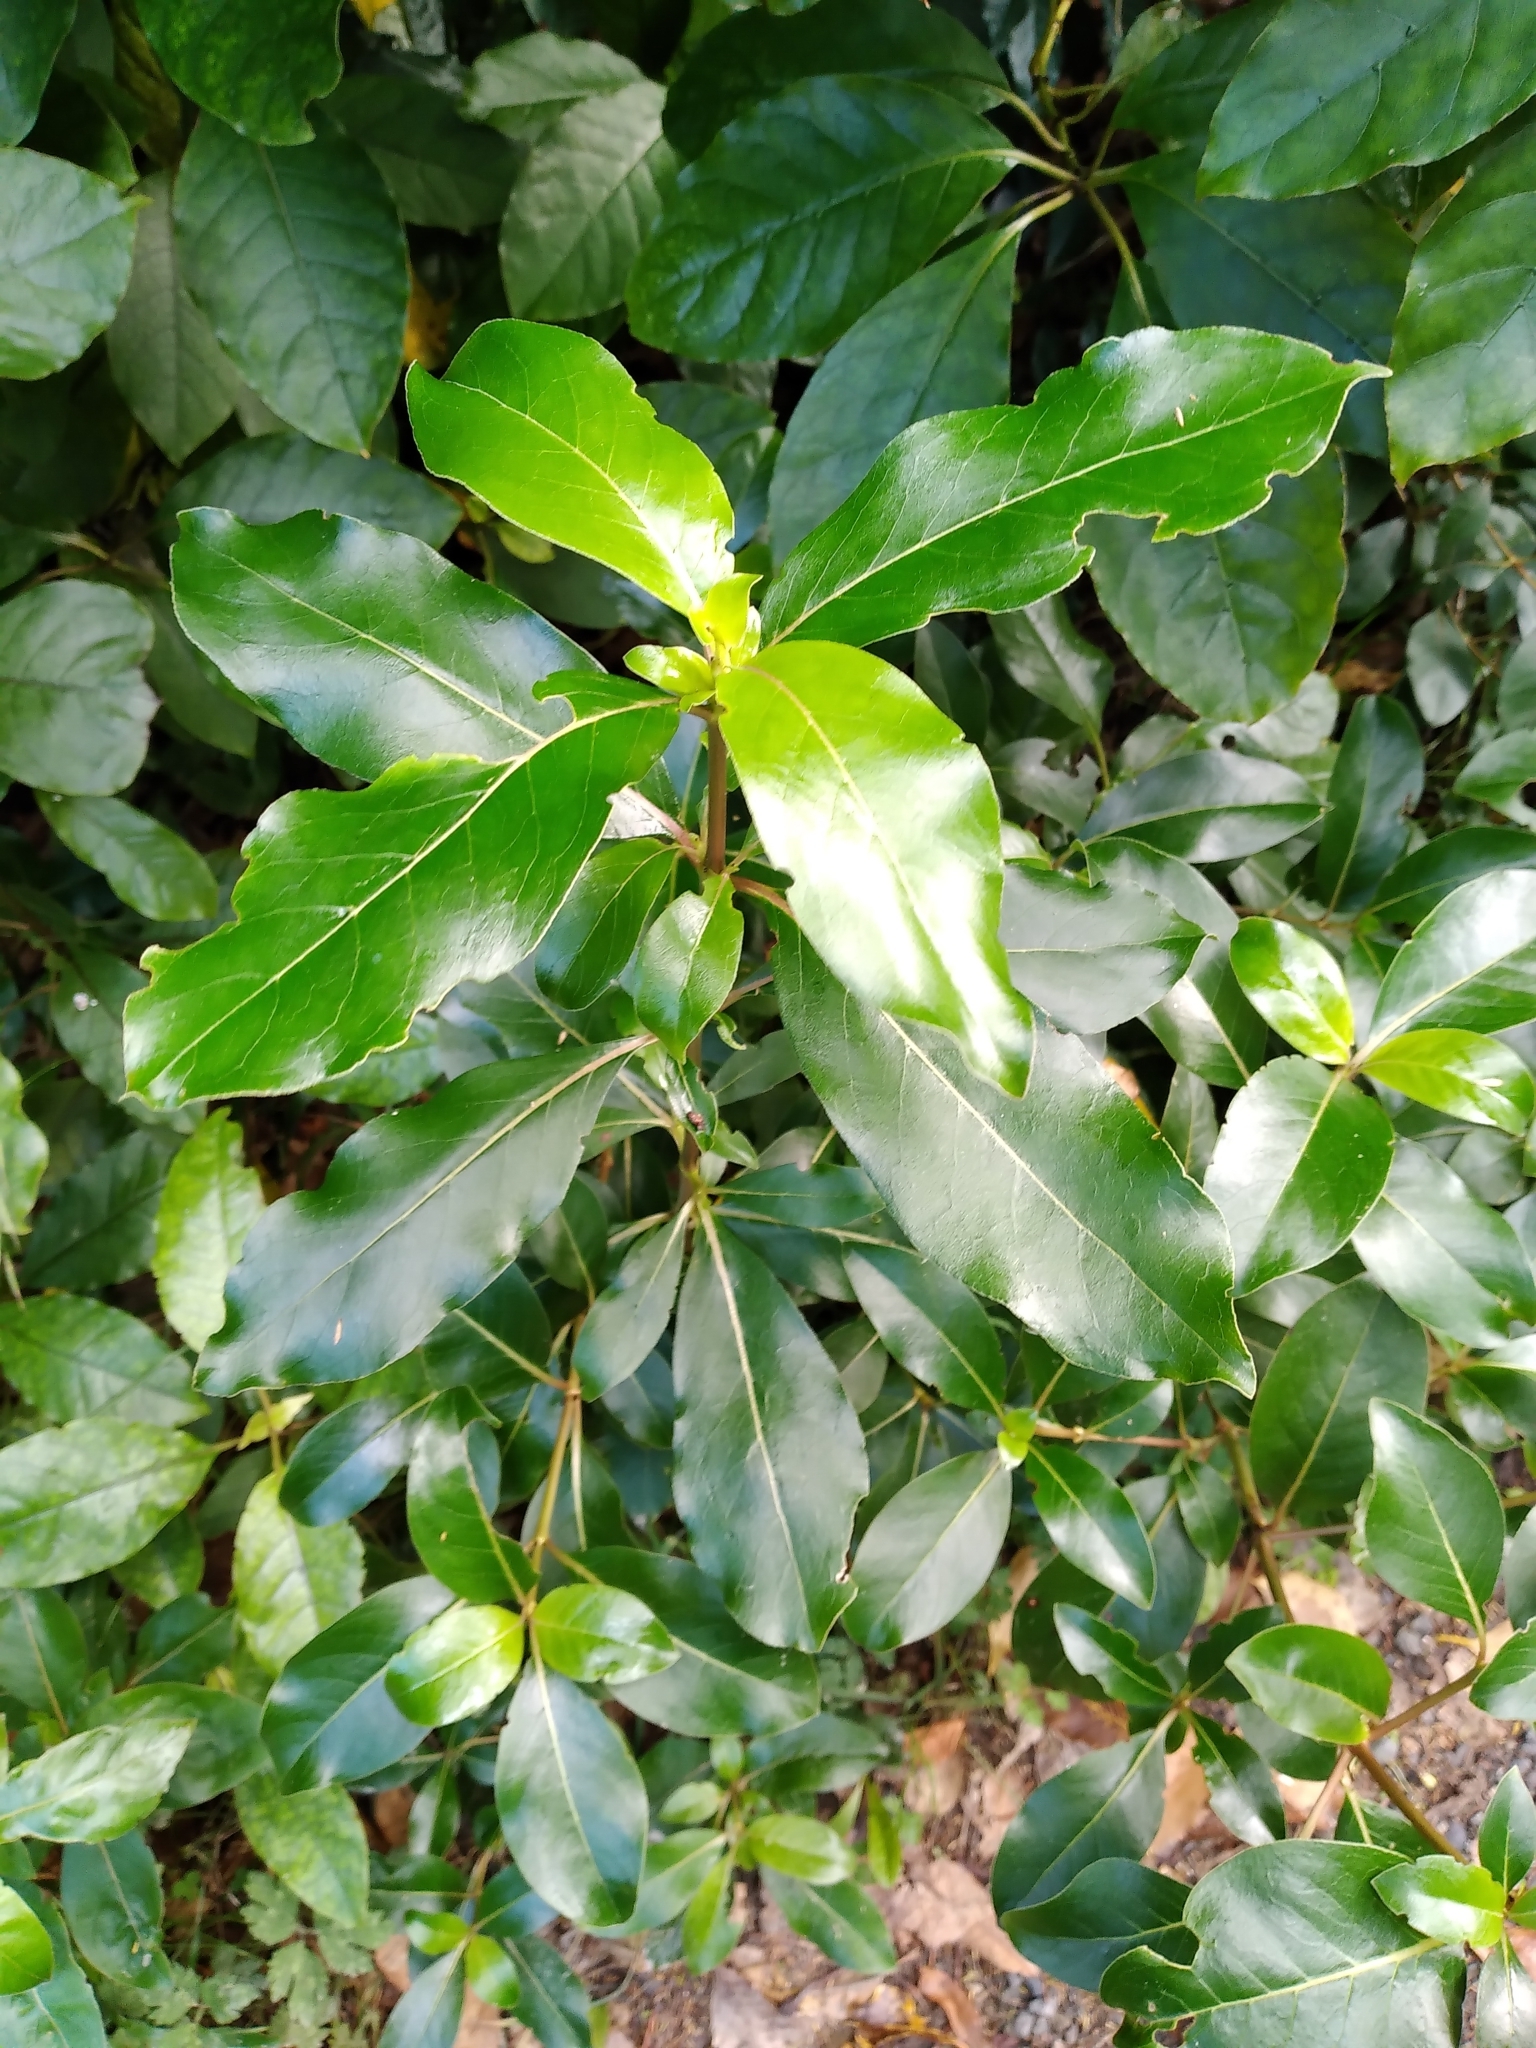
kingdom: Plantae
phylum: Tracheophyta
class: Magnoliopsida
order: Gentianales
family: Rubiaceae
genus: Coprosma
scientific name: Coprosma robusta
